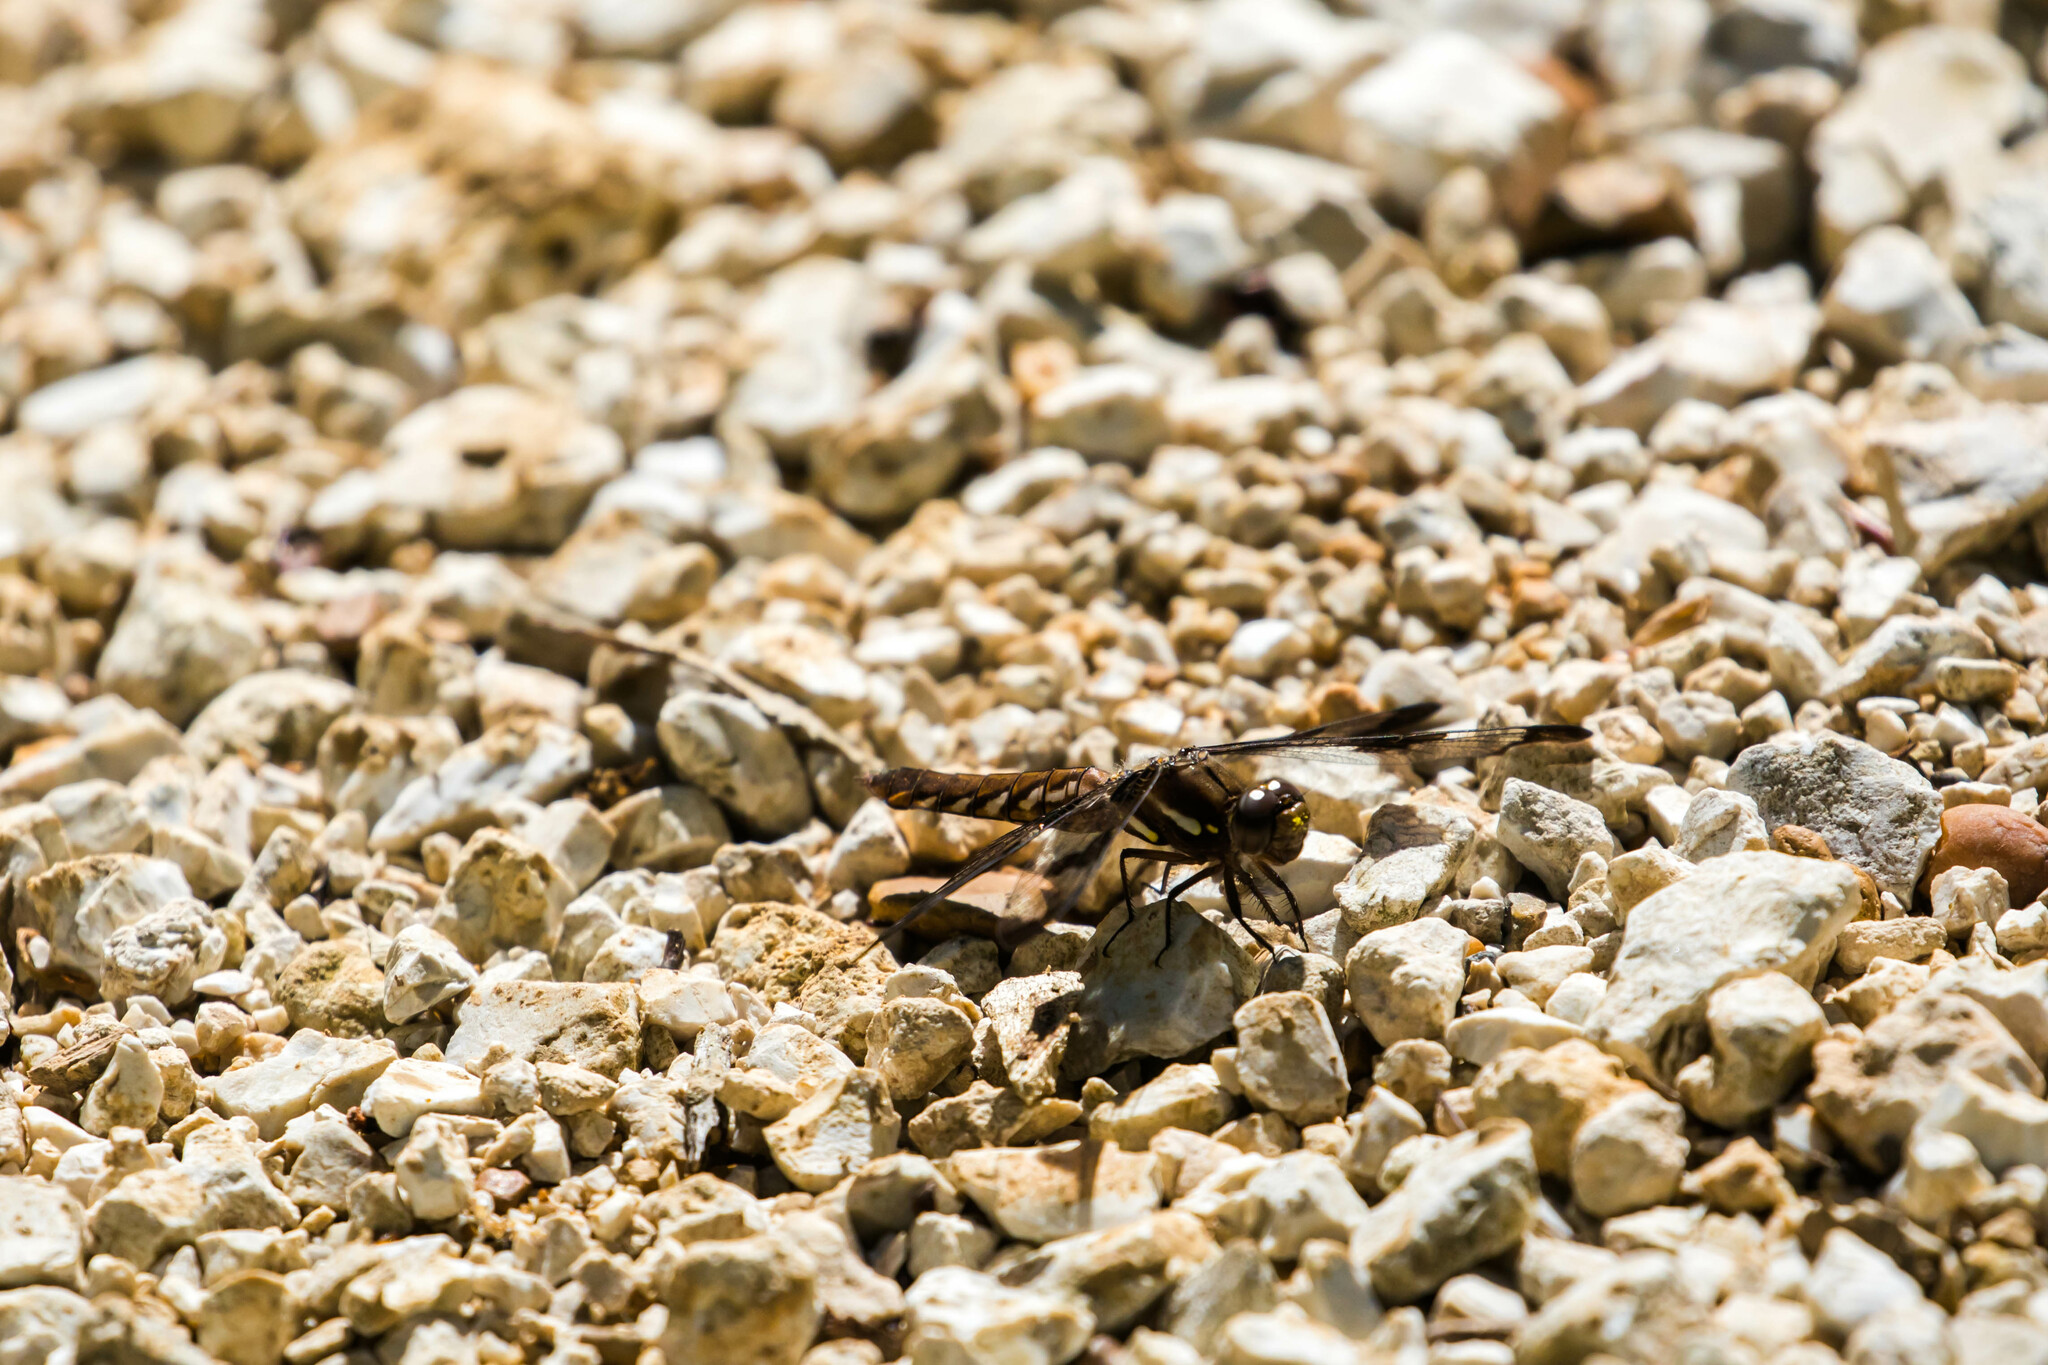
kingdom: Animalia
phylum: Arthropoda
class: Insecta
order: Odonata
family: Libellulidae
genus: Plathemis
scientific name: Plathemis lydia
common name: Common whitetail
